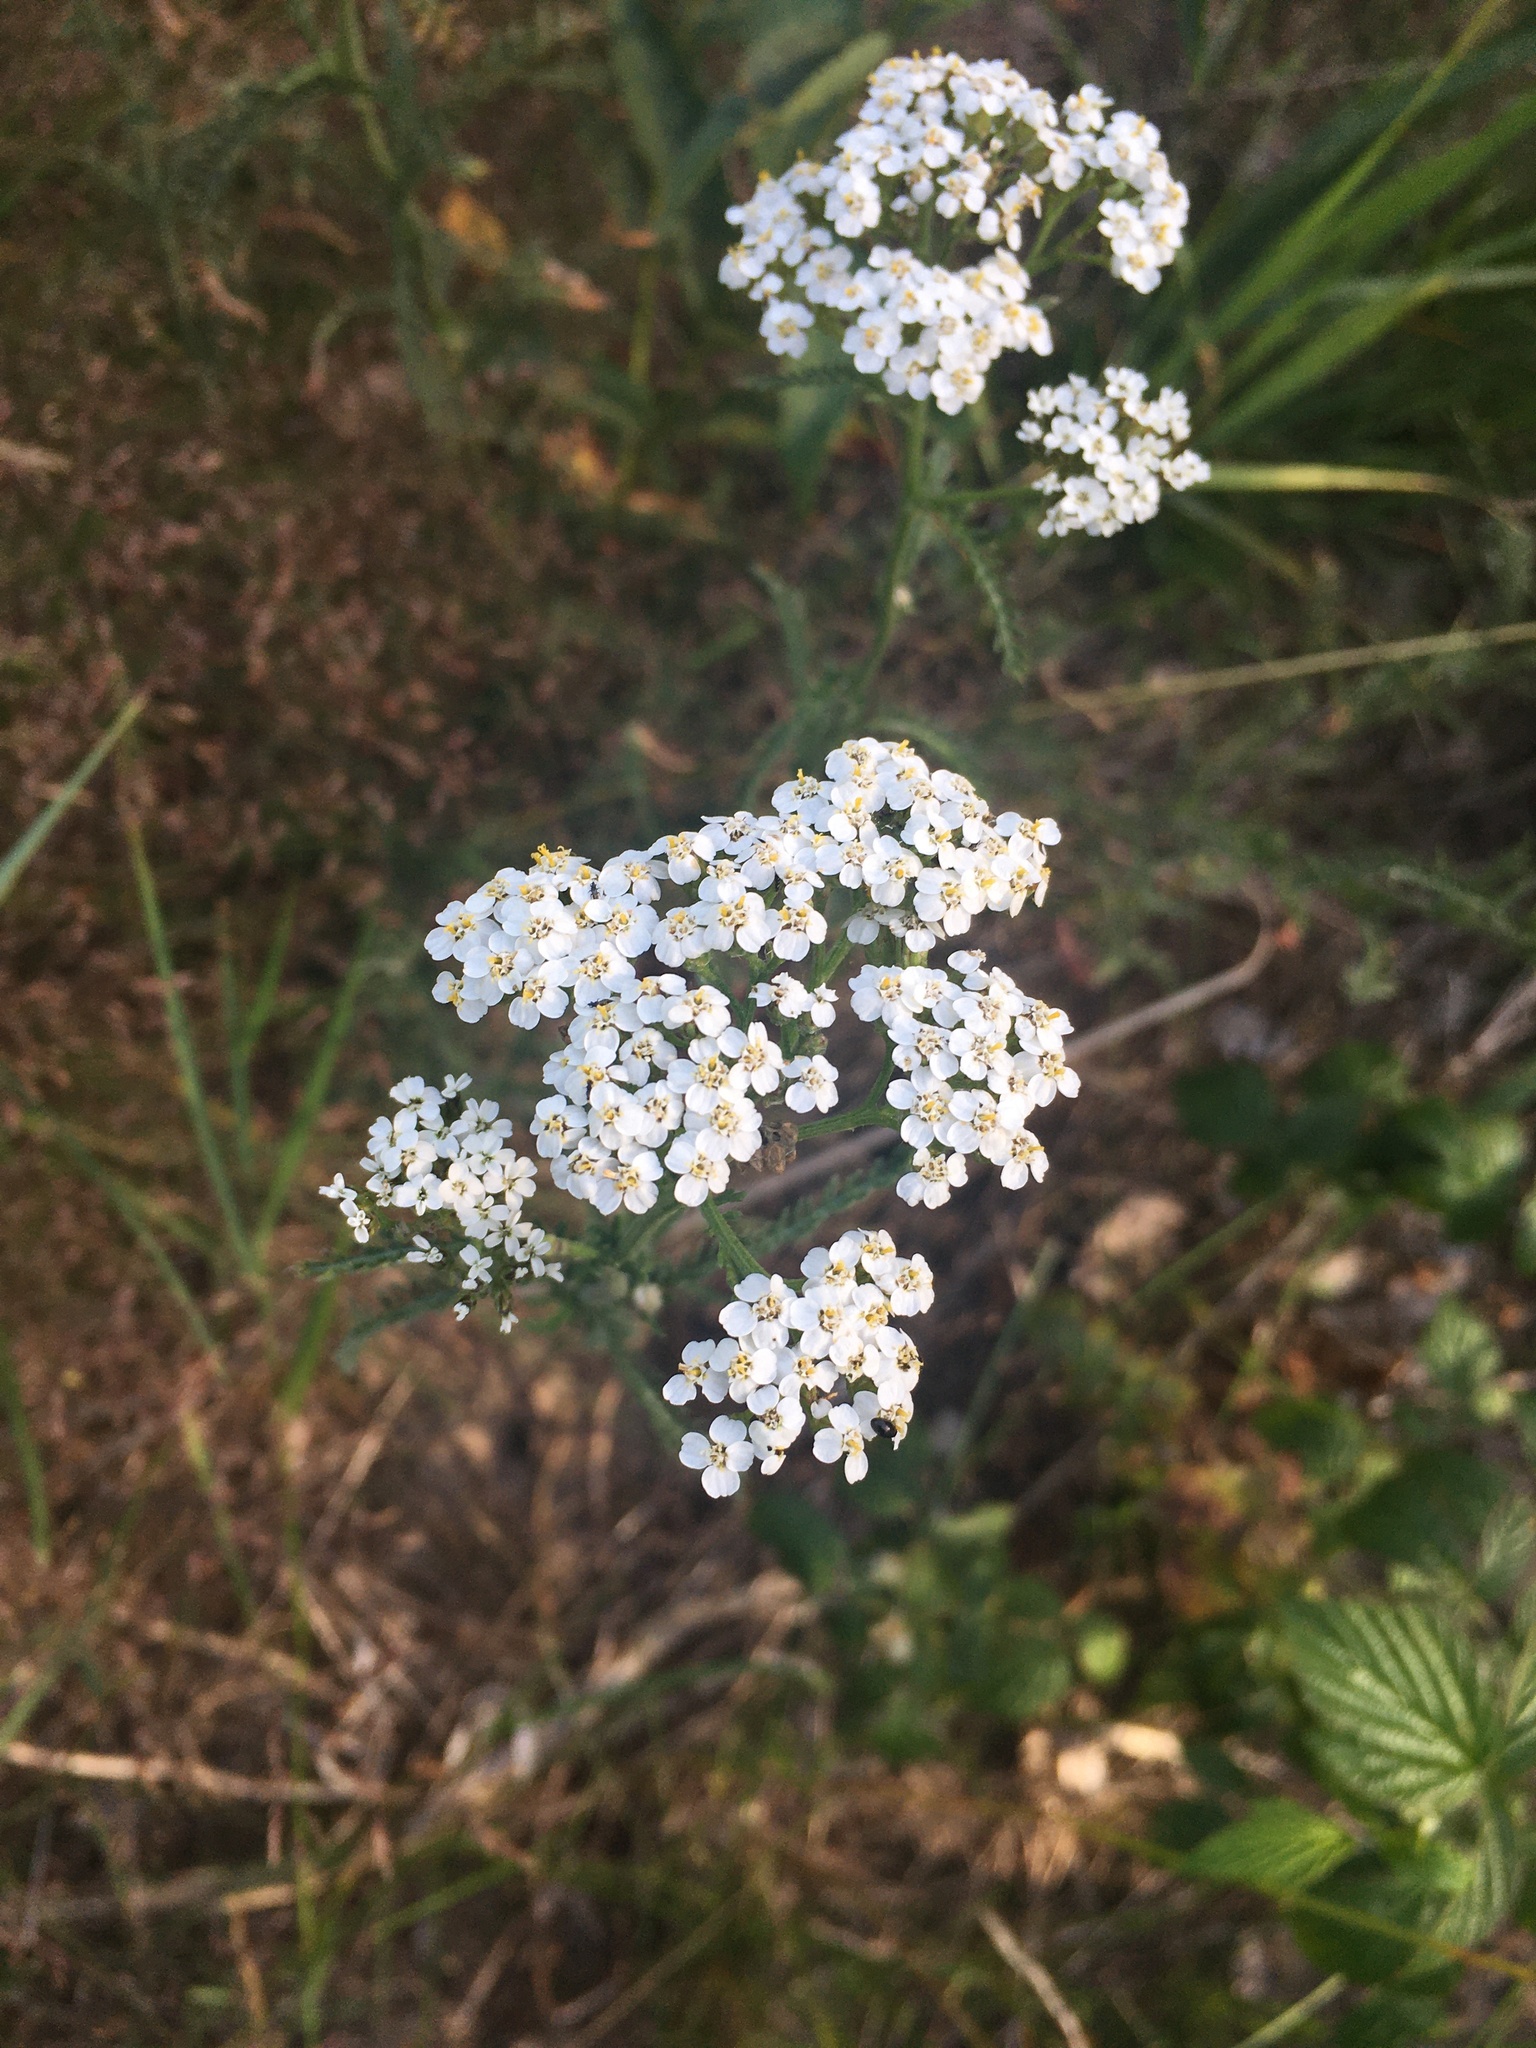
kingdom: Plantae
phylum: Tracheophyta
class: Magnoliopsida
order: Asterales
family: Asteraceae
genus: Achillea
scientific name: Achillea millefolium
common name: Yarrow
